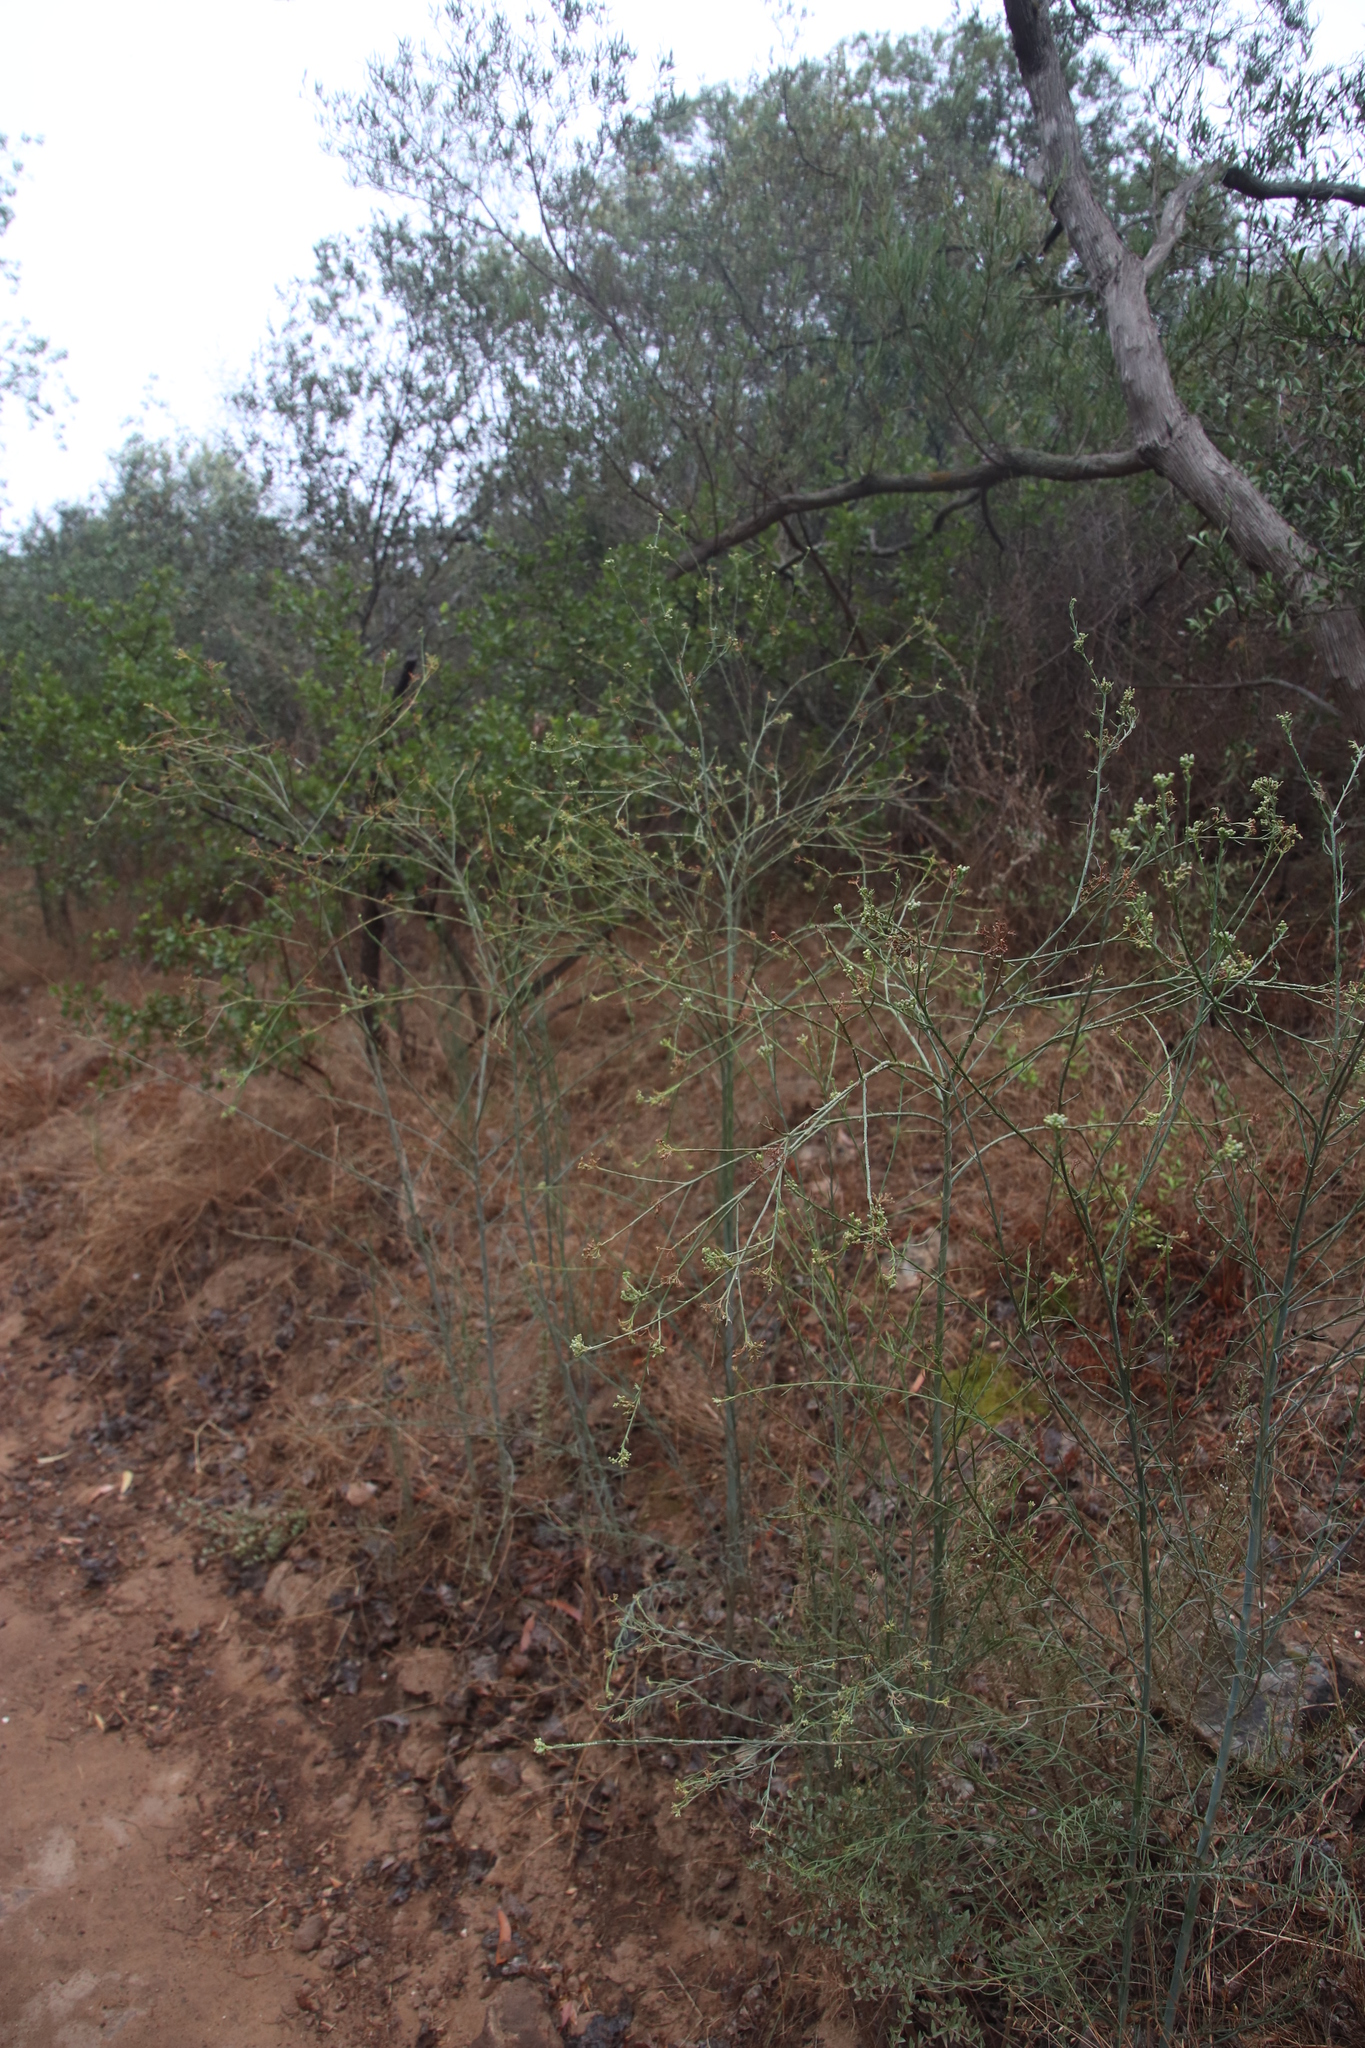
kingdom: Plantae
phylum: Tracheophyta
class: Magnoliopsida
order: Santalales
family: Thesiaceae
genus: Thesium
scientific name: Thesium strictum
